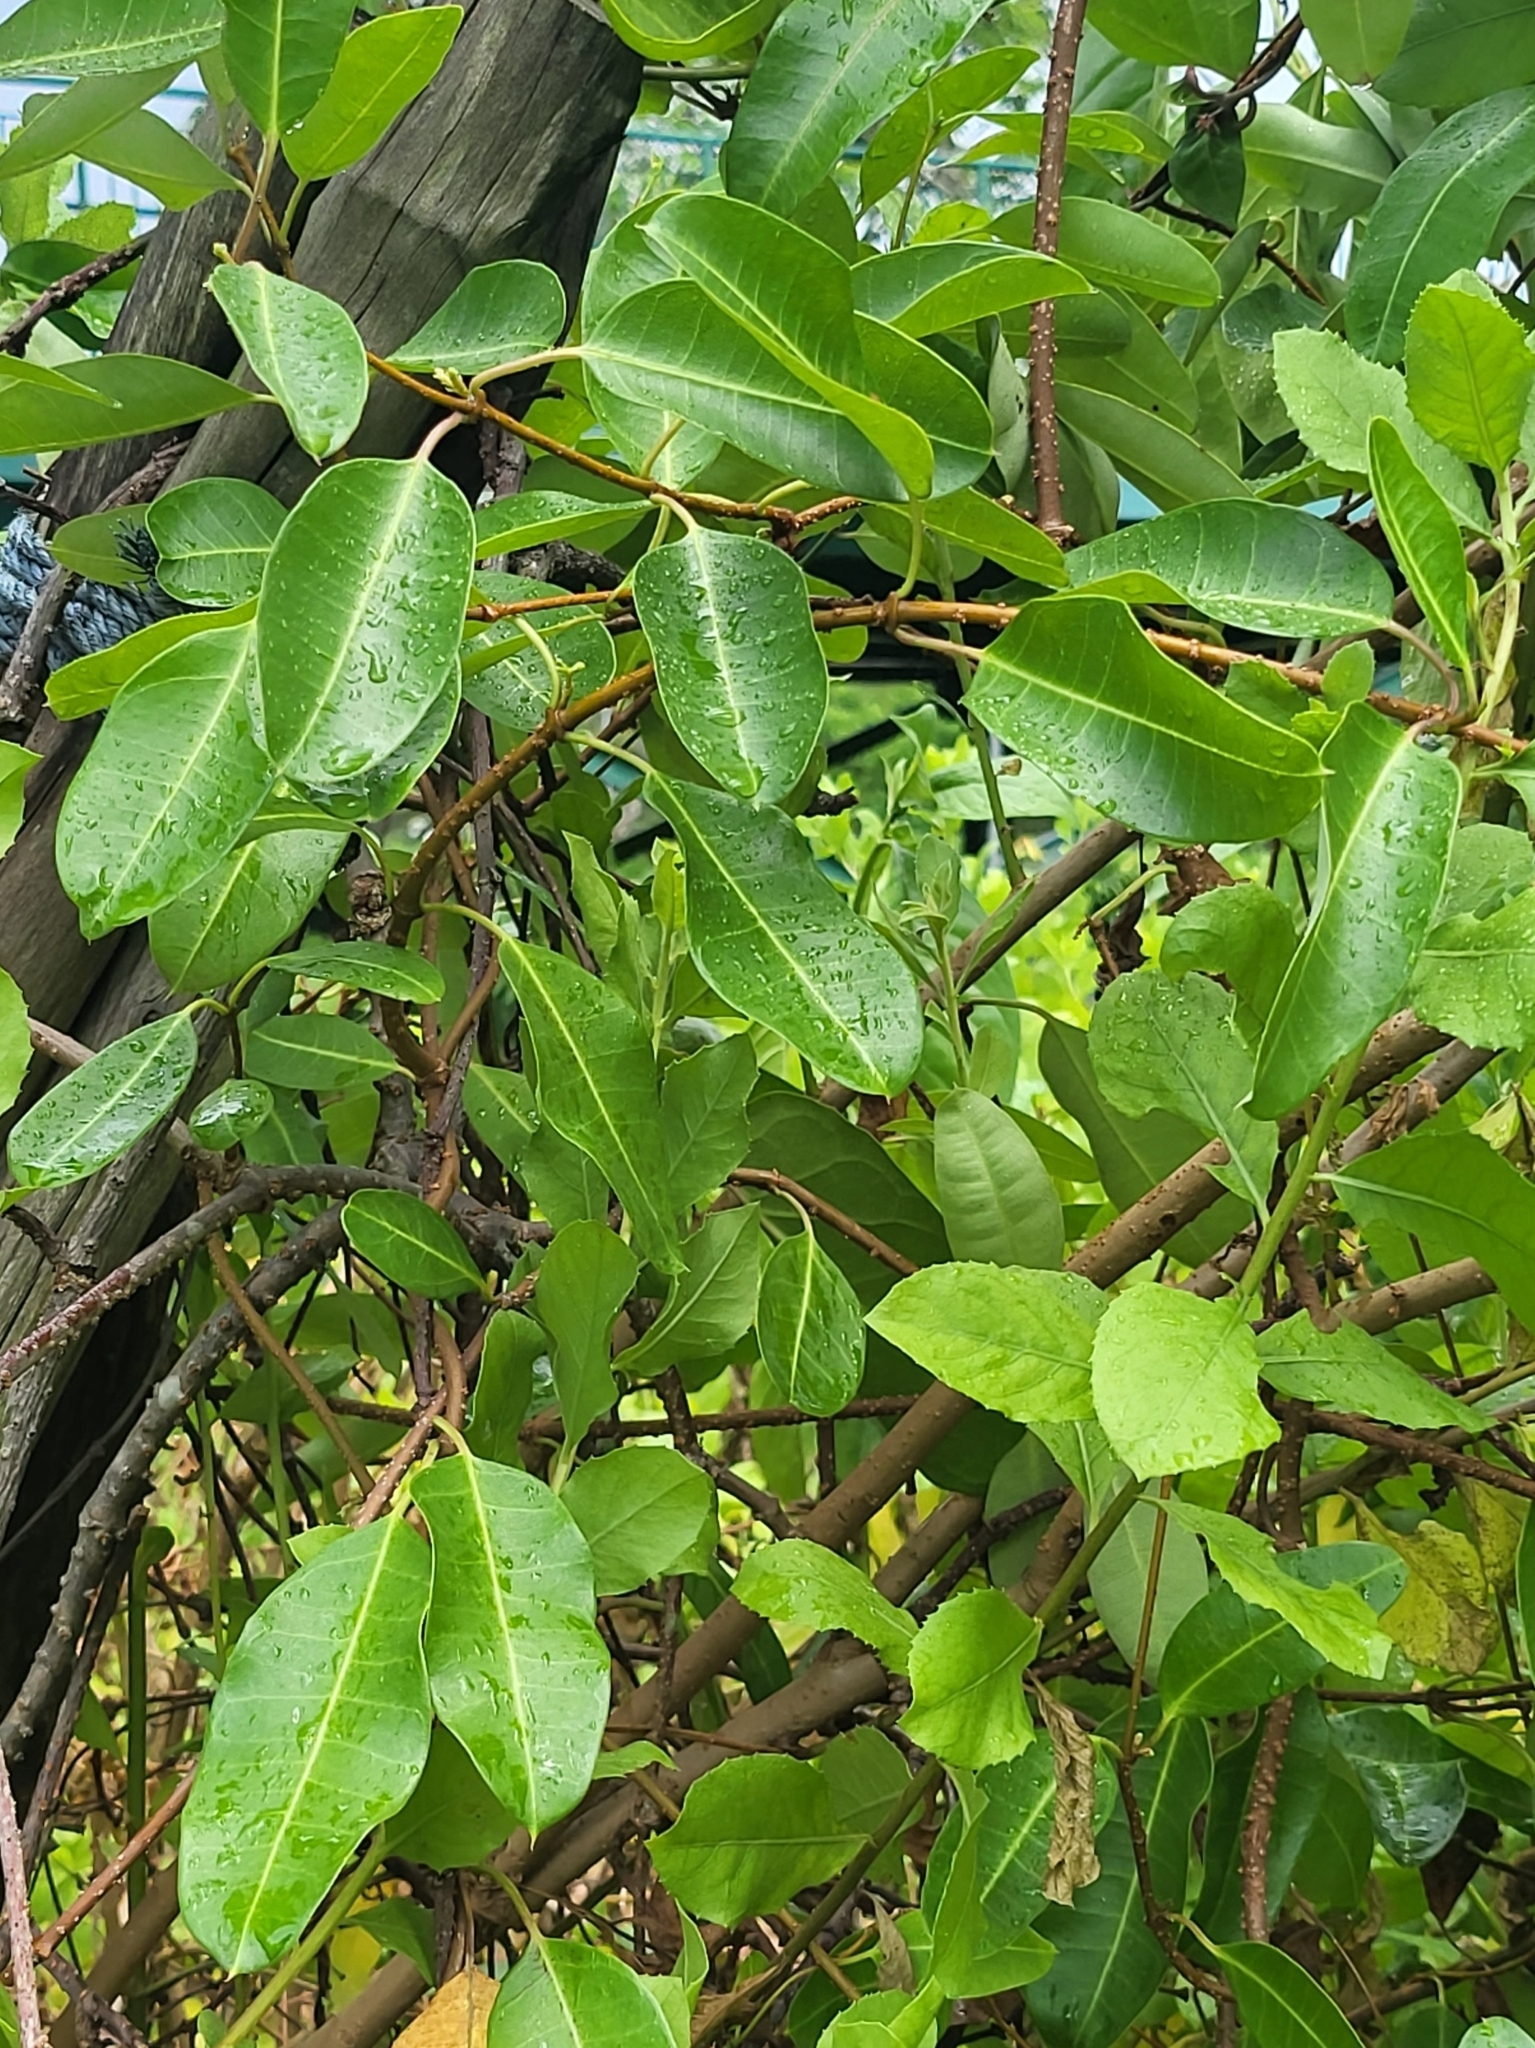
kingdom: Plantae
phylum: Tracheophyta
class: Magnoliopsida
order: Gentianales
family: Apocynaceae
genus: Gymnanthera
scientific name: Gymnanthera oblonga
